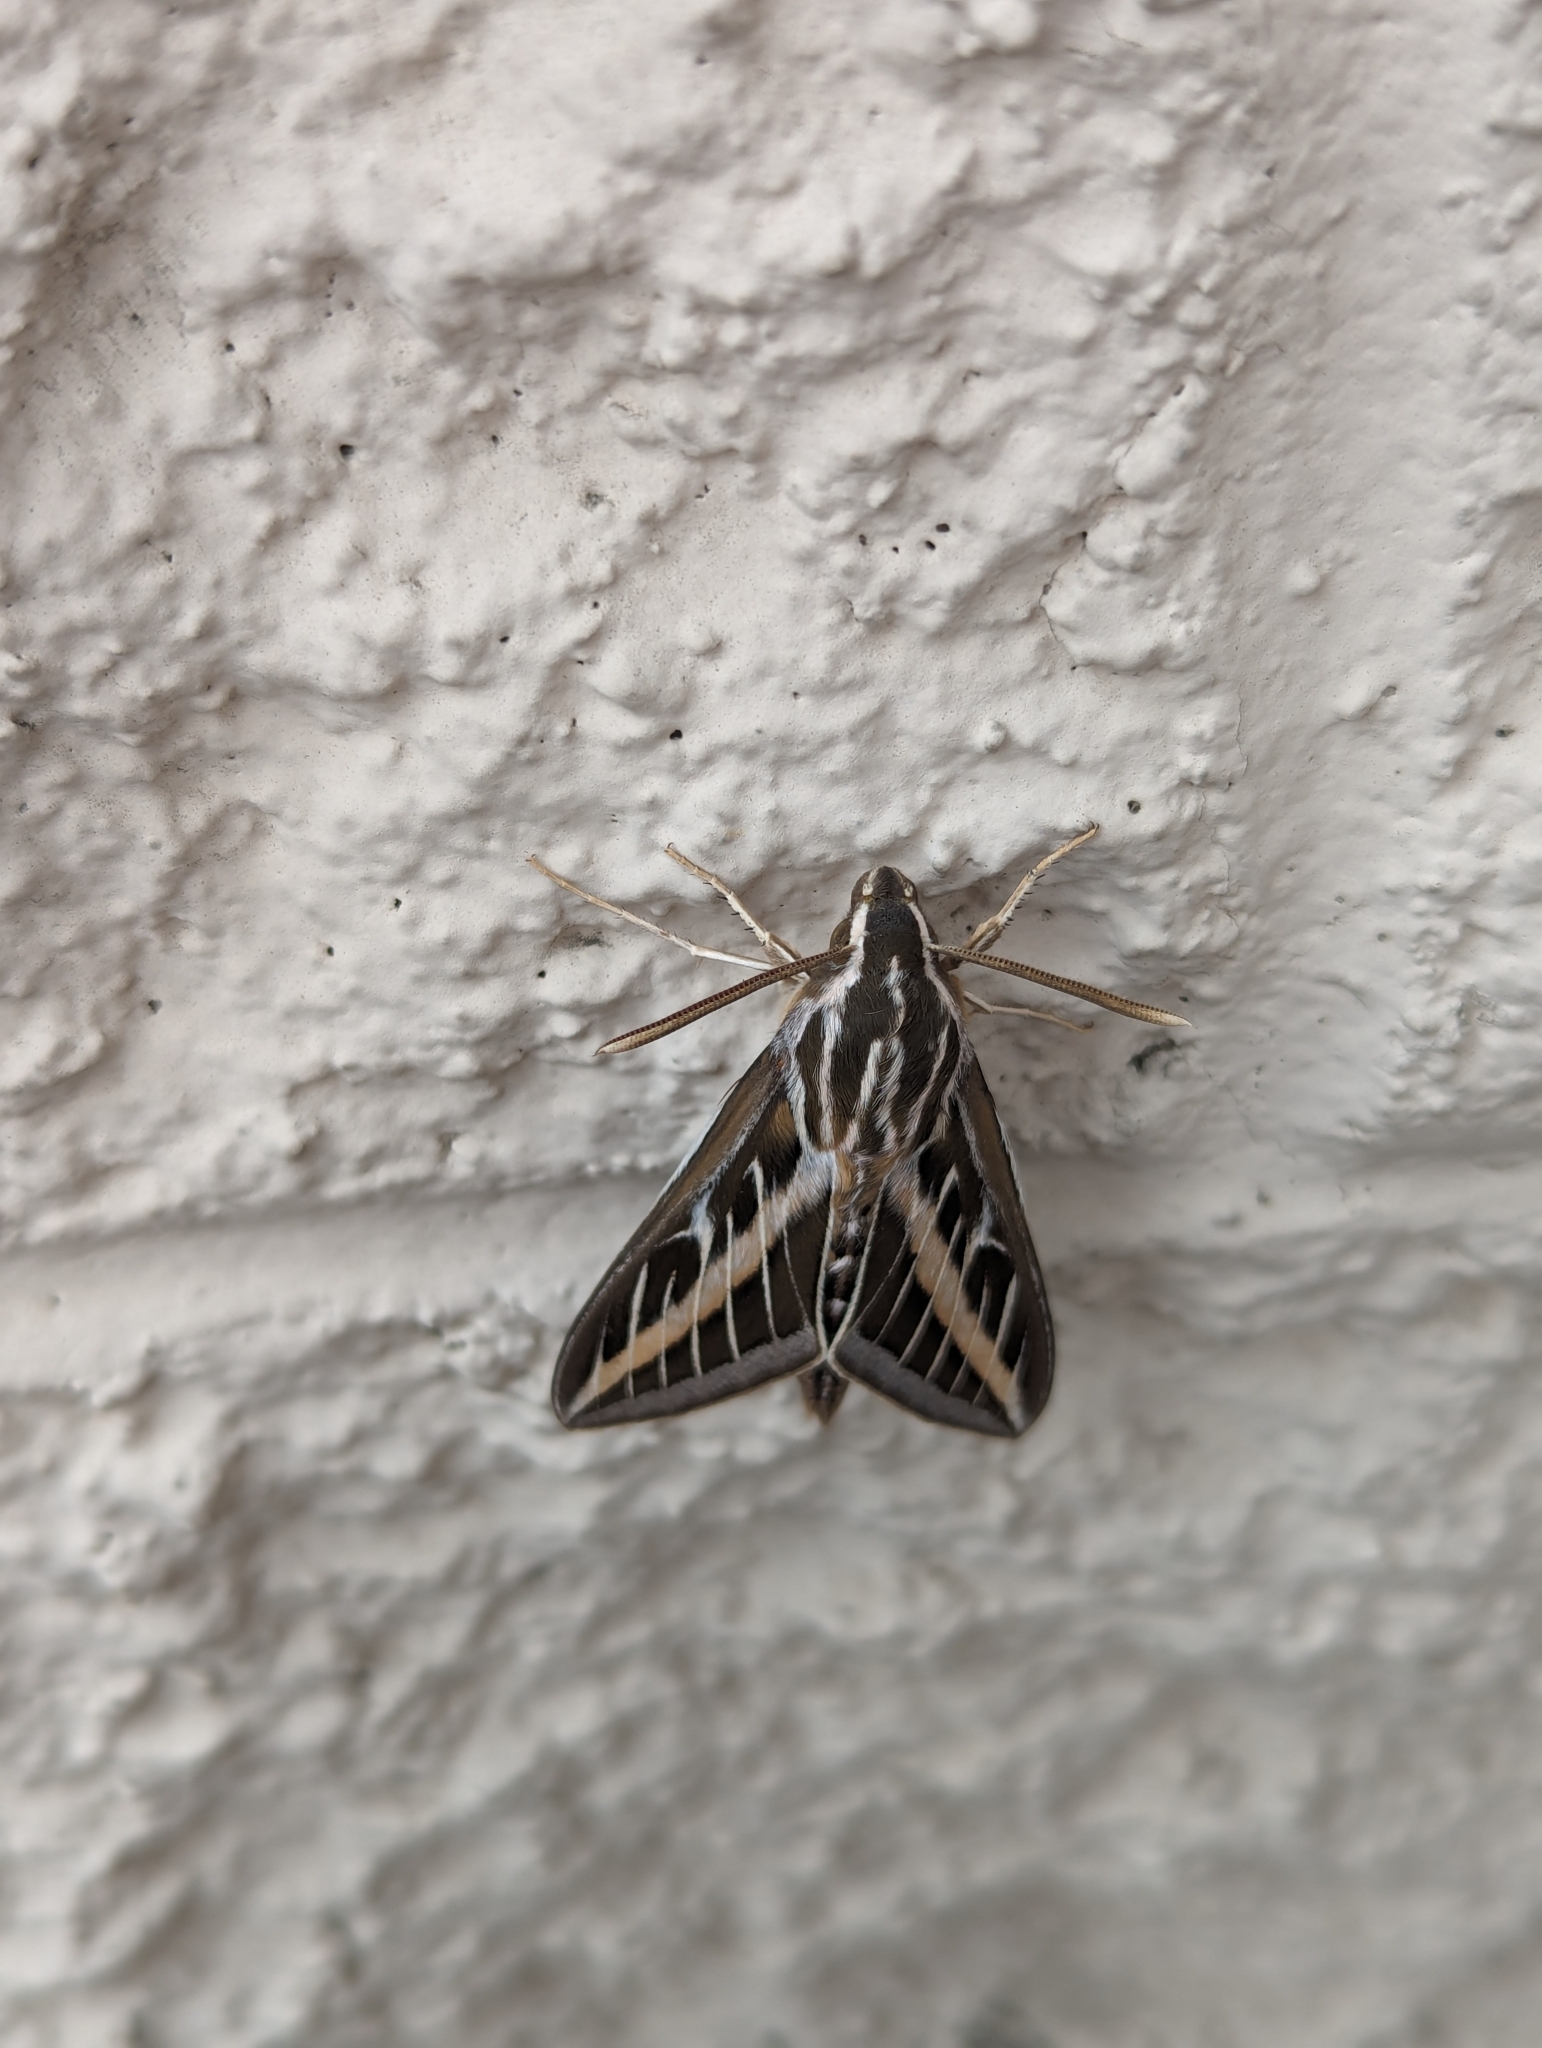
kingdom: Animalia
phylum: Arthropoda
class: Insecta
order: Lepidoptera
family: Sphingidae
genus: Hyles
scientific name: Hyles lineata
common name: White-lined sphinx
